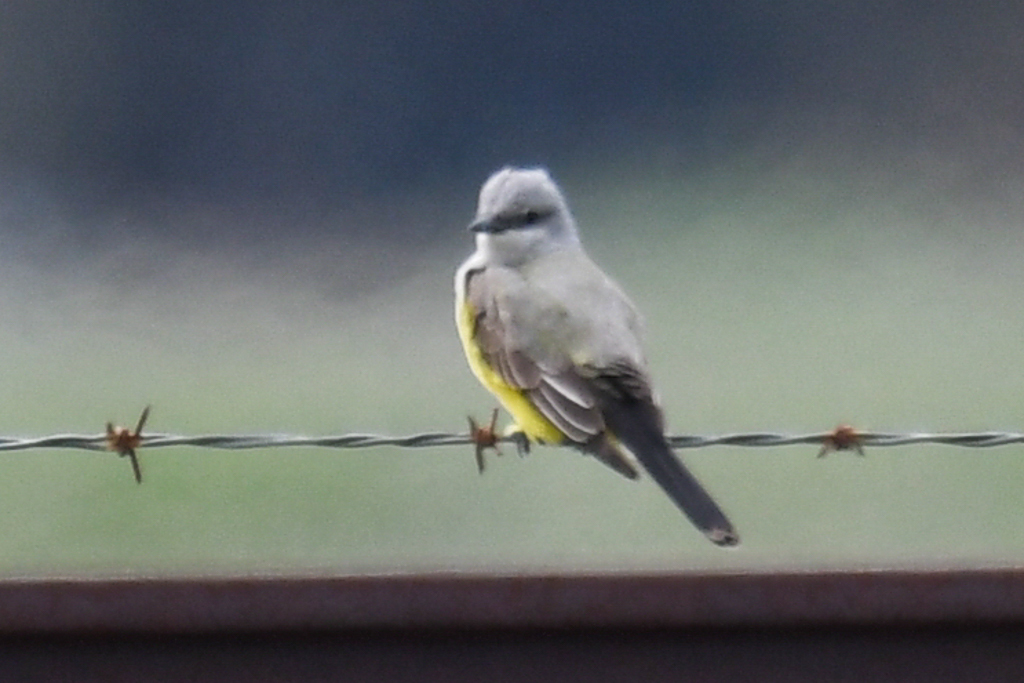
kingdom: Animalia
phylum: Chordata
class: Aves
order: Passeriformes
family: Tyrannidae
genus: Tyrannus
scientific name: Tyrannus verticalis
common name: Western kingbird
